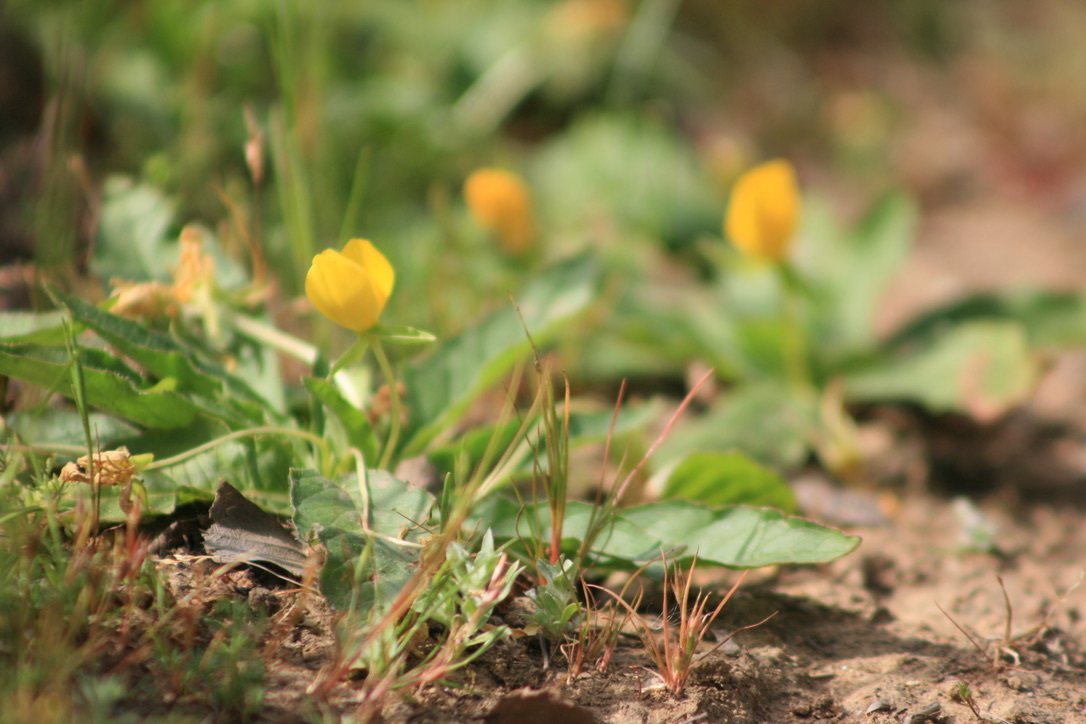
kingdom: Plantae
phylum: Tracheophyta
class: Magnoliopsida
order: Myrtales
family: Onagraceae
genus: Taraxia
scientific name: Taraxia ovata
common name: Goldeneggs
